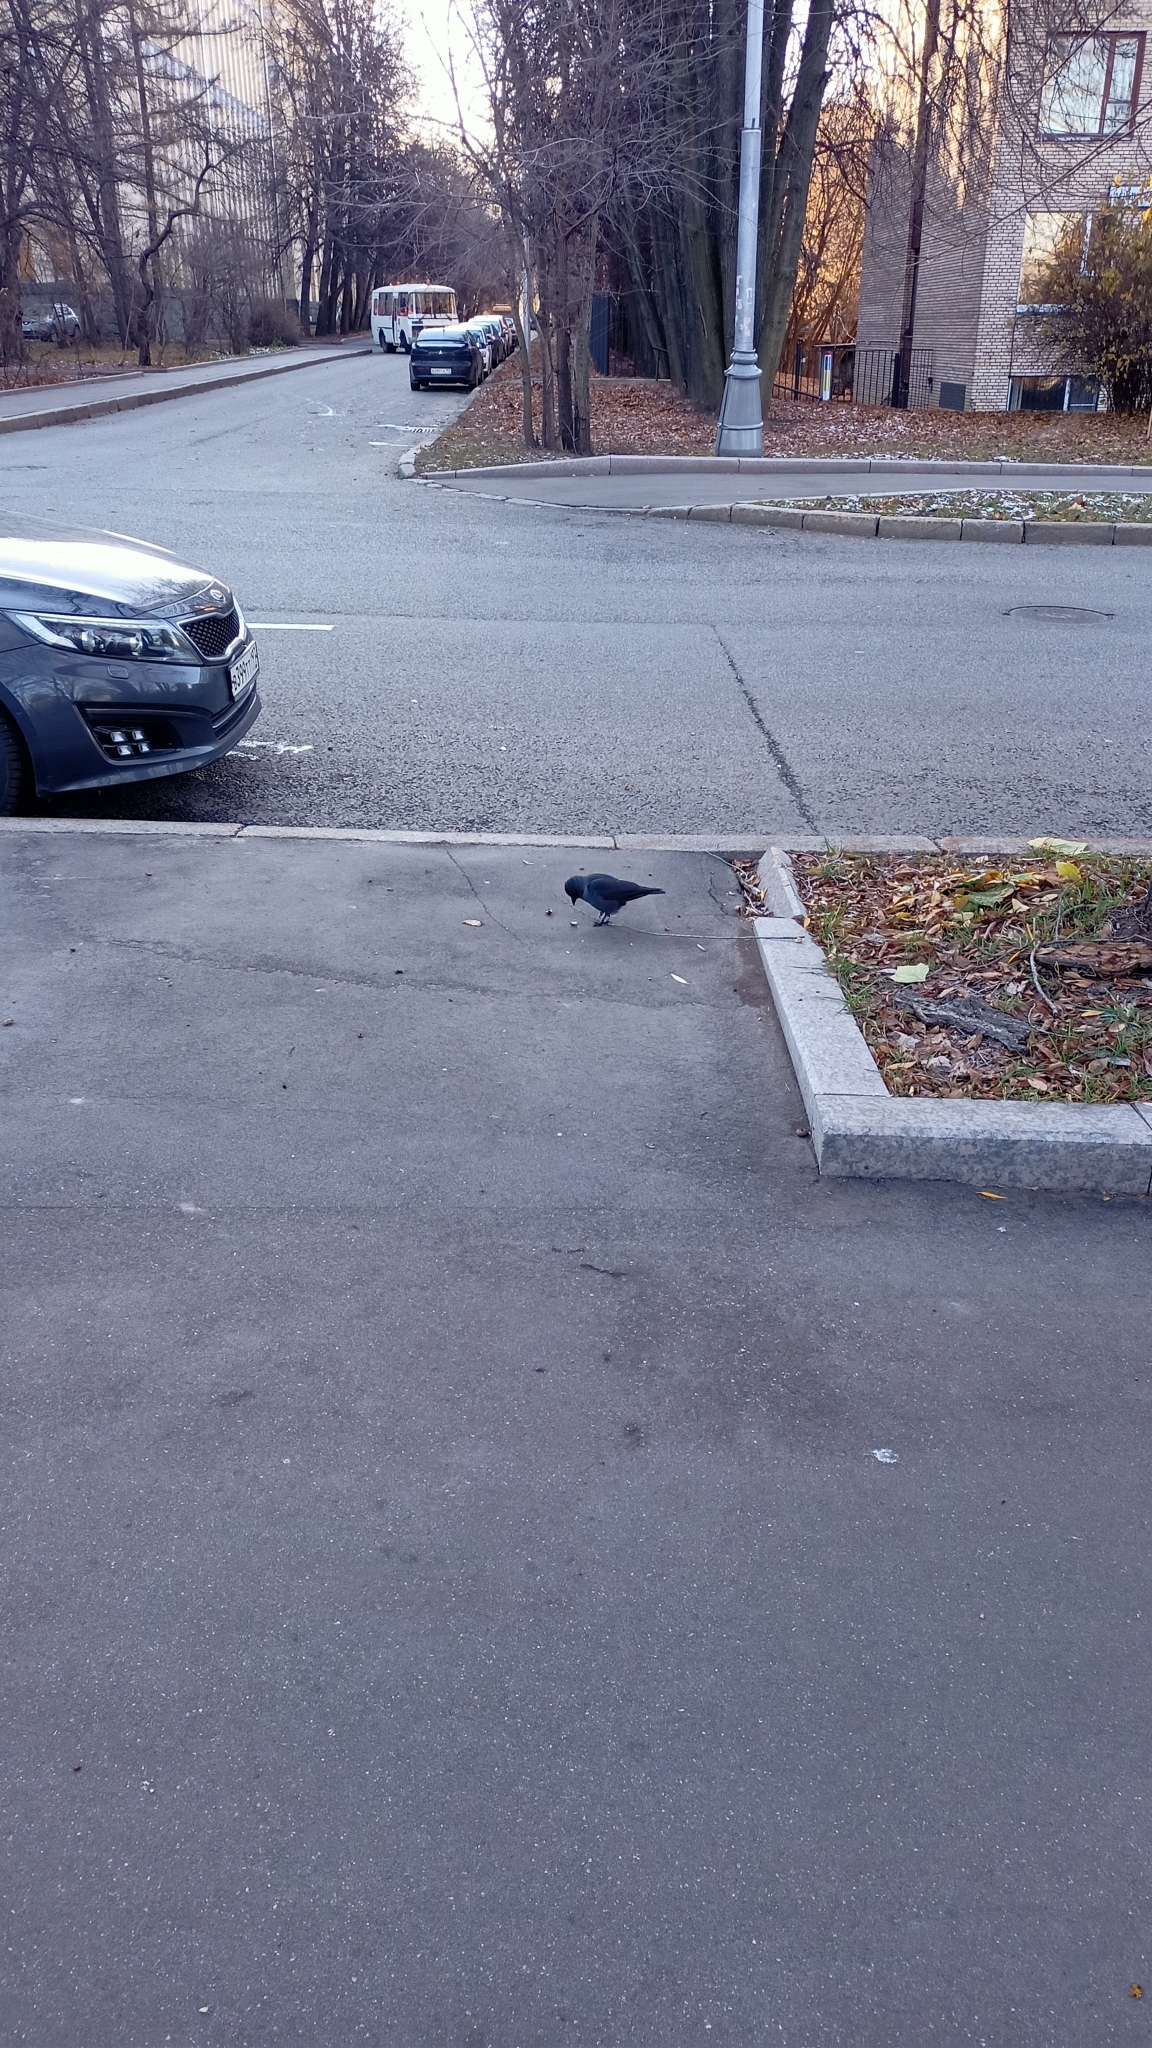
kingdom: Animalia
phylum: Chordata
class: Aves
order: Passeriformes
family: Corvidae
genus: Coloeus
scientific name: Coloeus monedula
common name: Western jackdaw
